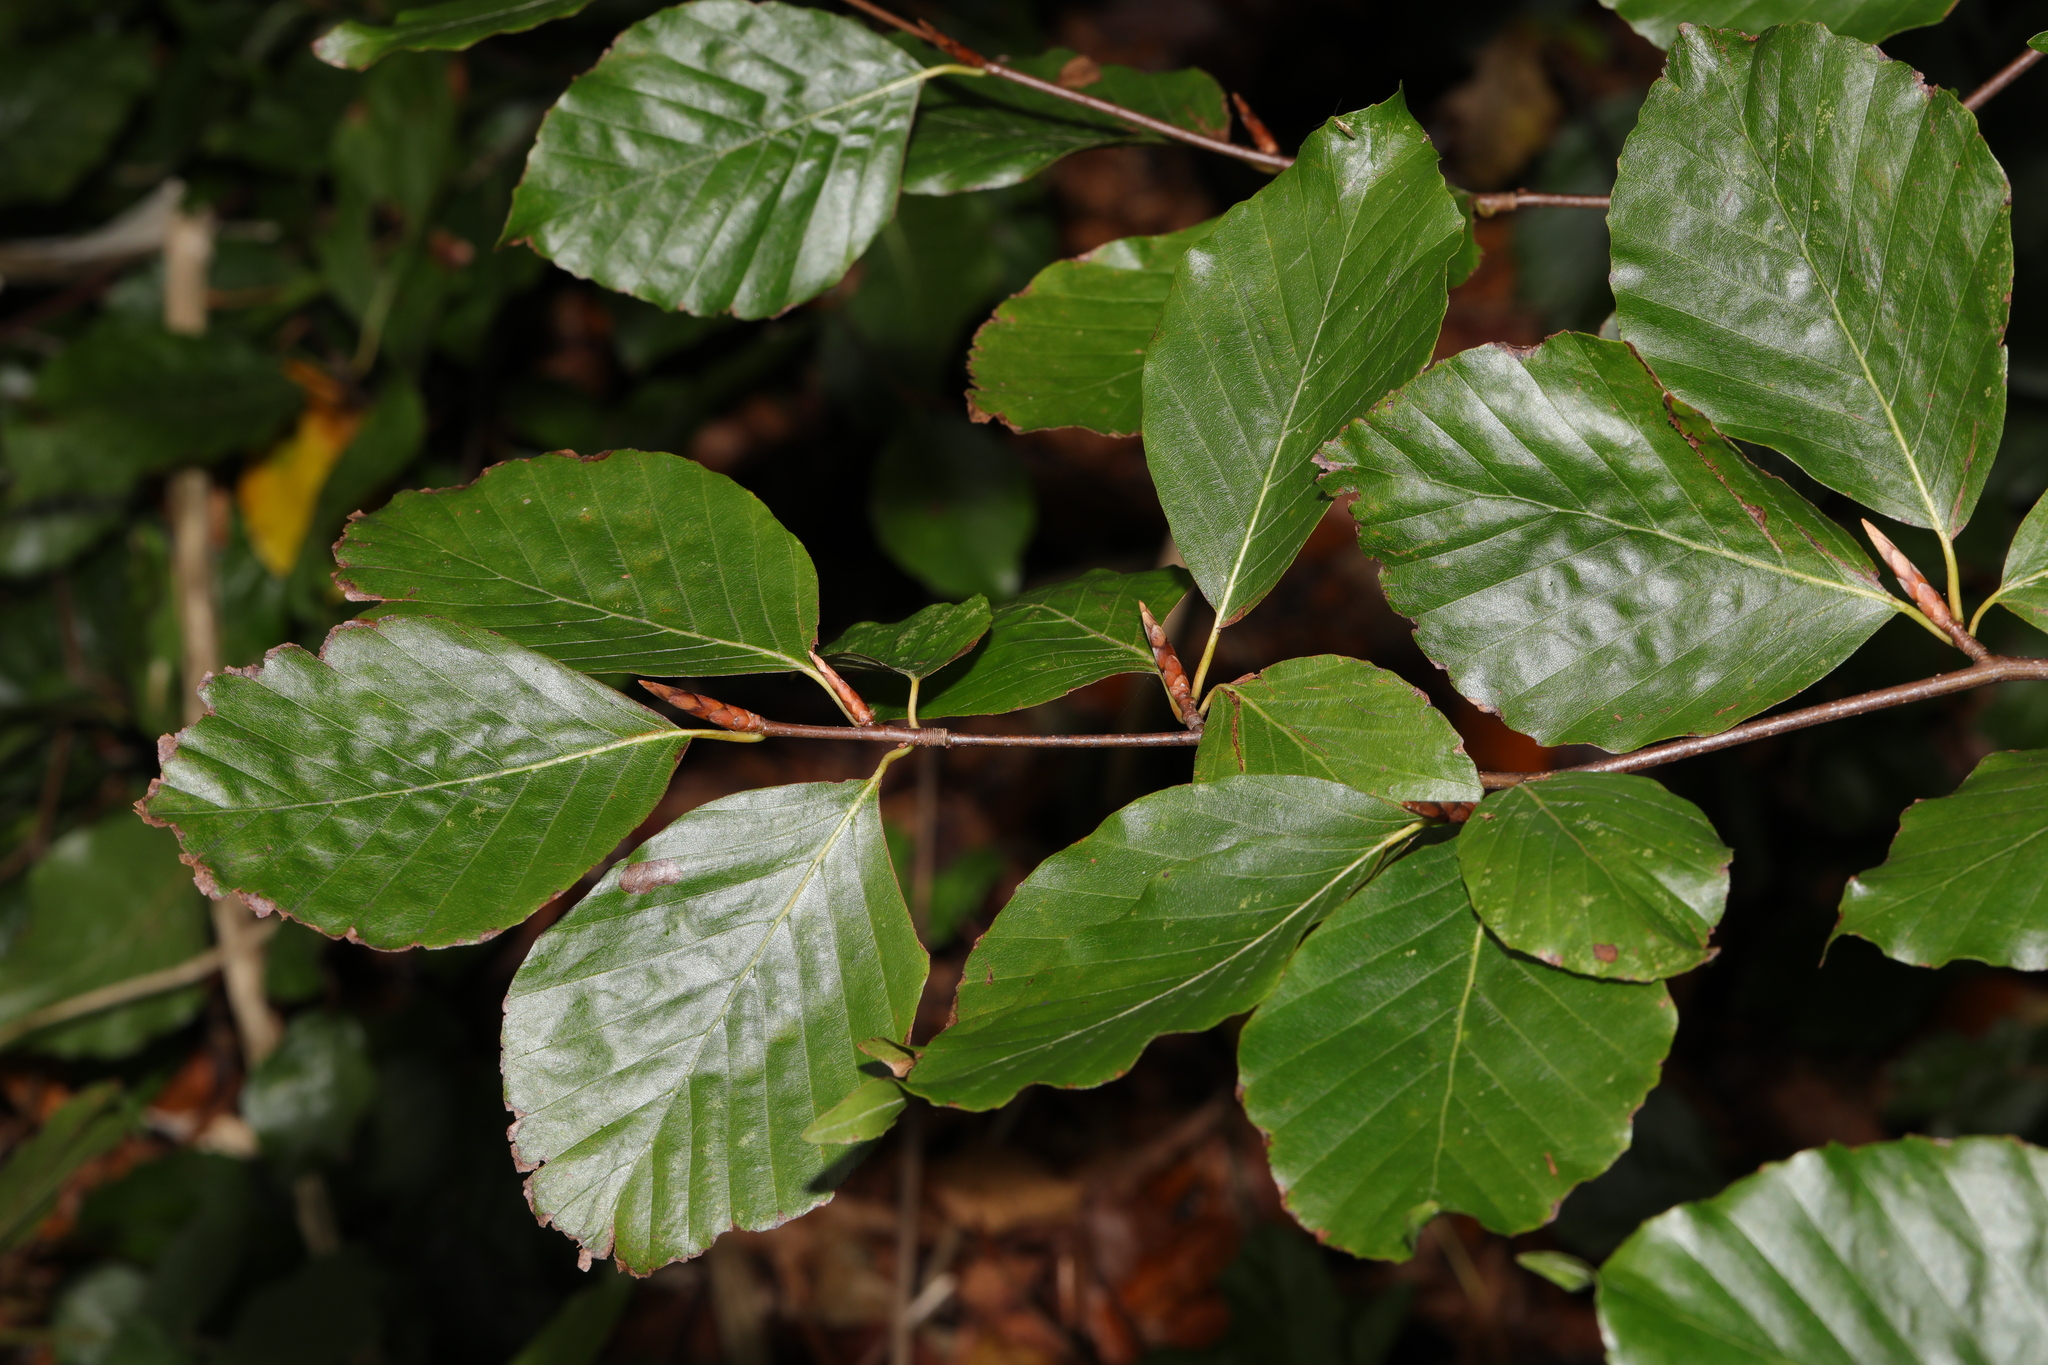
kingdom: Plantae
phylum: Tracheophyta
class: Magnoliopsida
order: Fagales
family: Fagaceae
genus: Fagus
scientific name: Fagus sylvatica
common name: Beech
